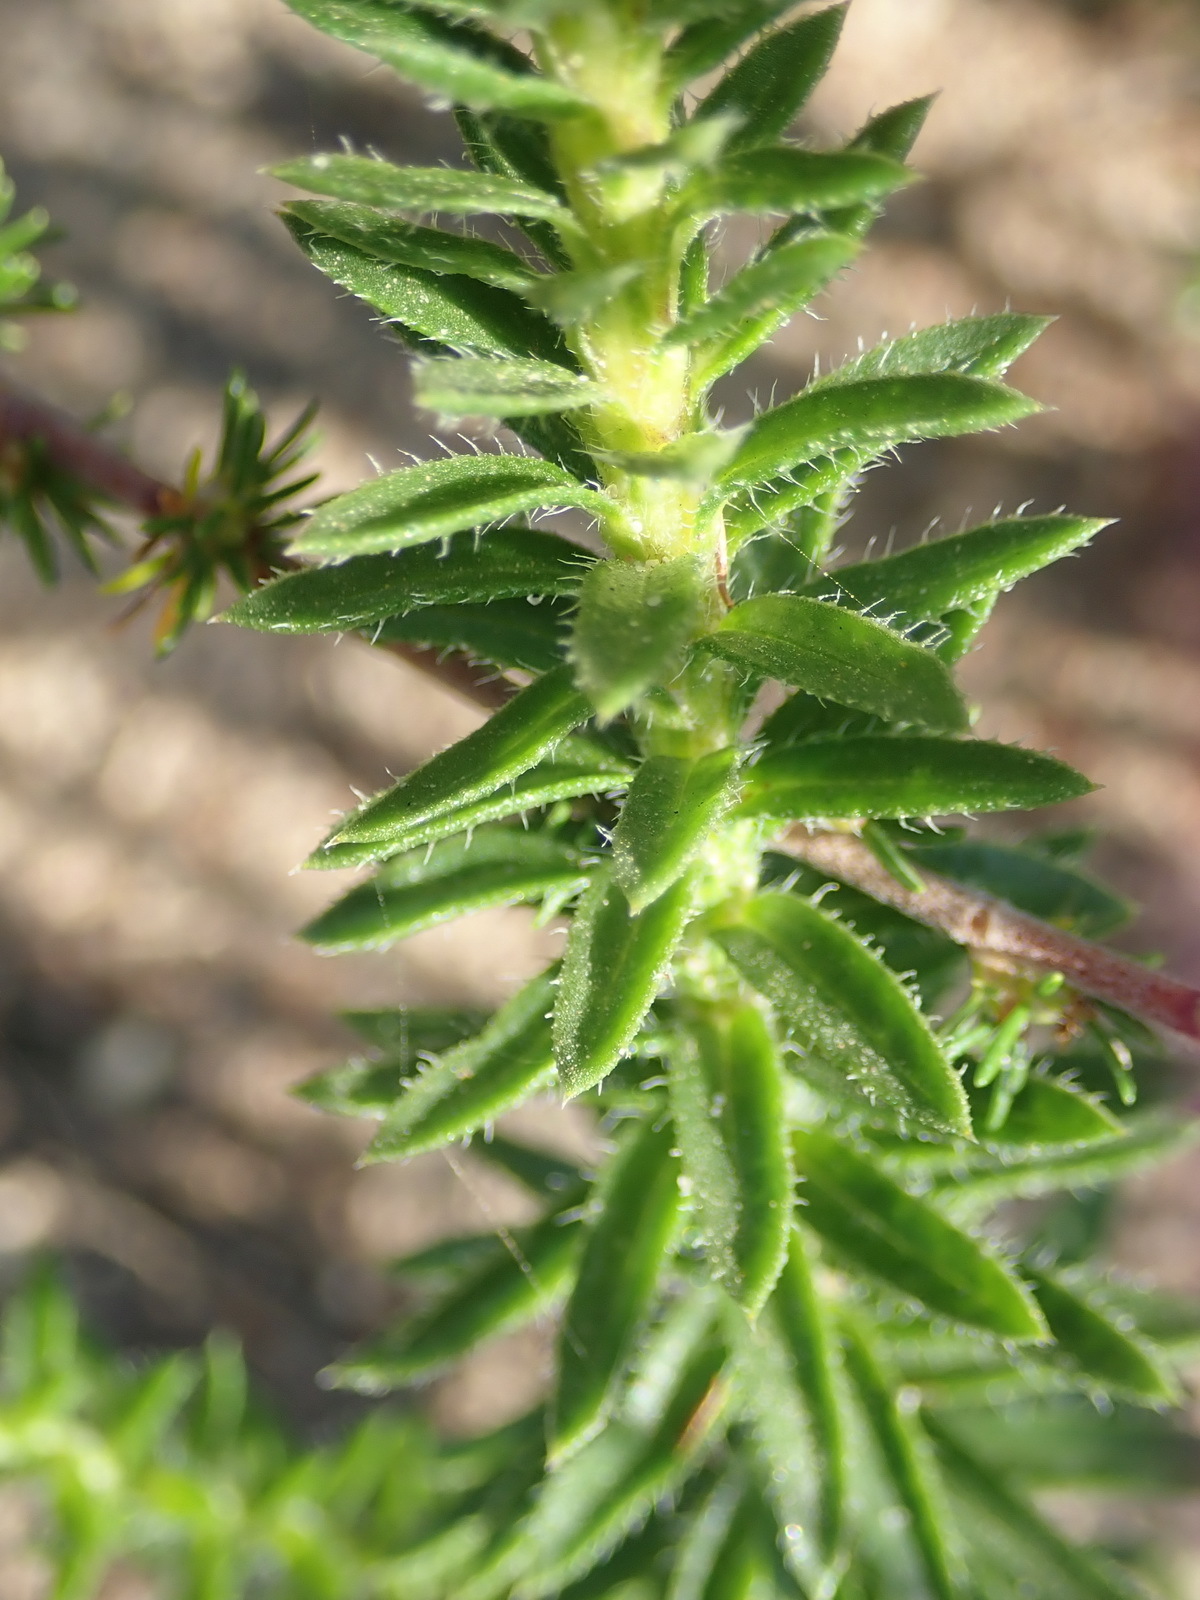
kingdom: Plantae
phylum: Tracheophyta
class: Magnoliopsida
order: Asterales
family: Asteraceae
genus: Felicia
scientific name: Felicia echinata
